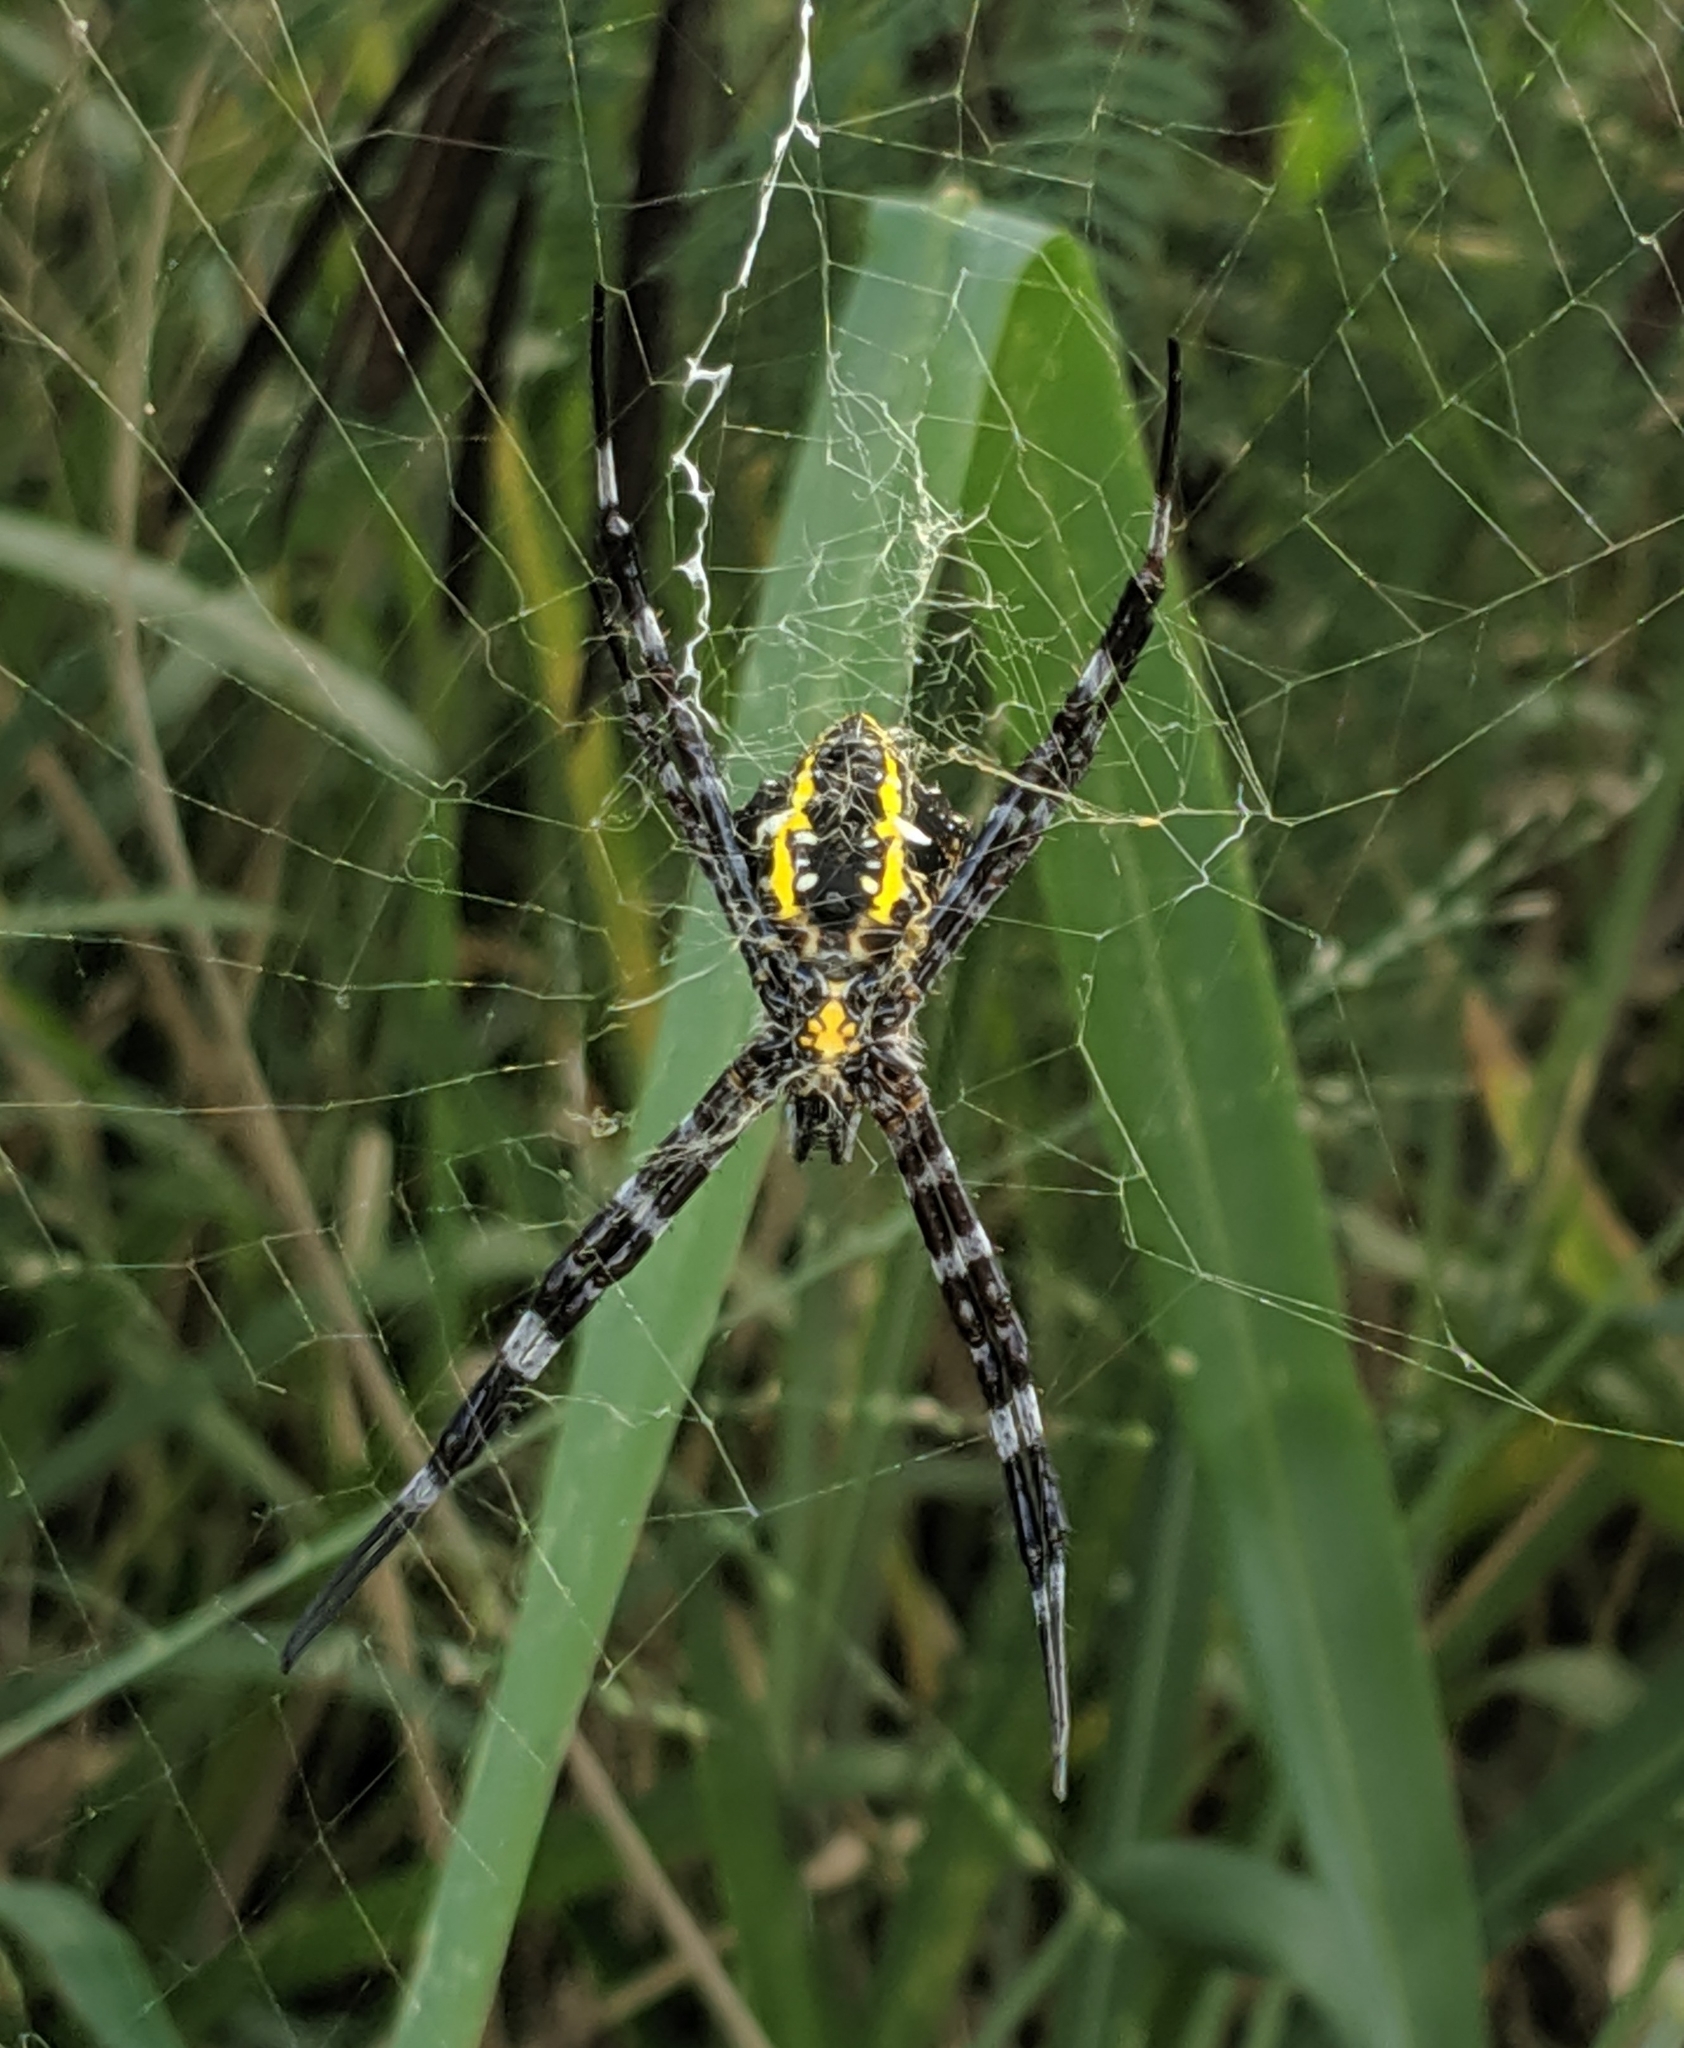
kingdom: Animalia
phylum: Arthropoda
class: Arachnida
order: Araneae
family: Araneidae
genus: Argiope
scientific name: Argiope appensa
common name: Garden spider
